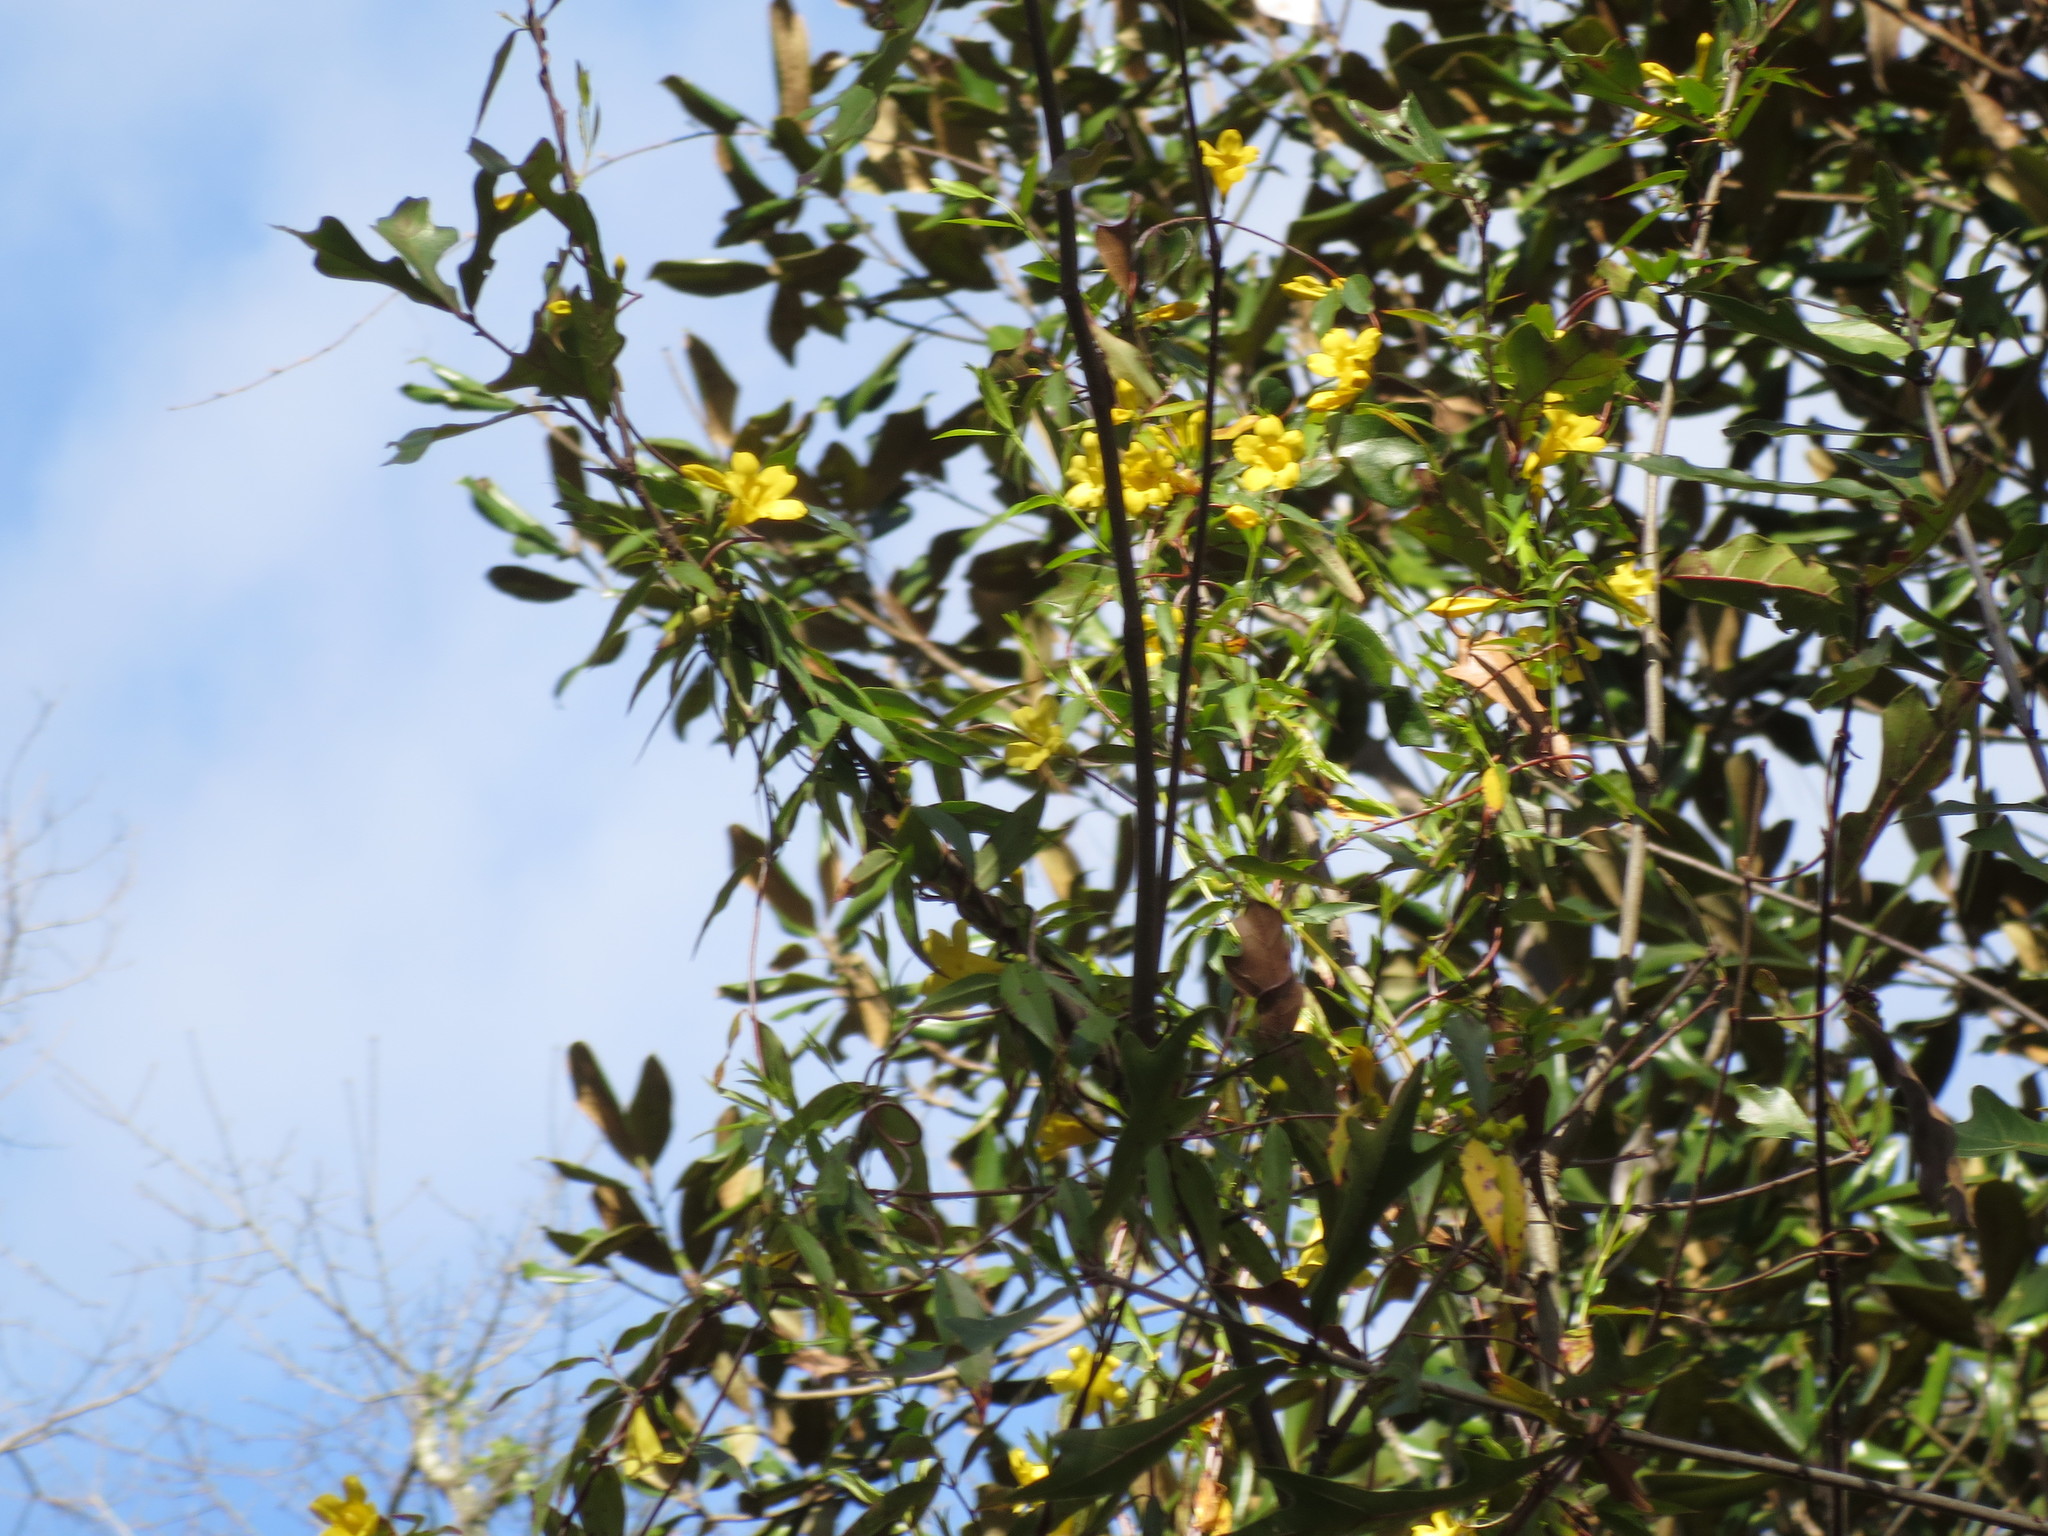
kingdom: Plantae
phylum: Tracheophyta
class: Magnoliopsida
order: Gentianales
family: Gelsemiaceae
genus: Gelsemium
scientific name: Gelsemium sempervirens
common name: Carolina-jasmine
